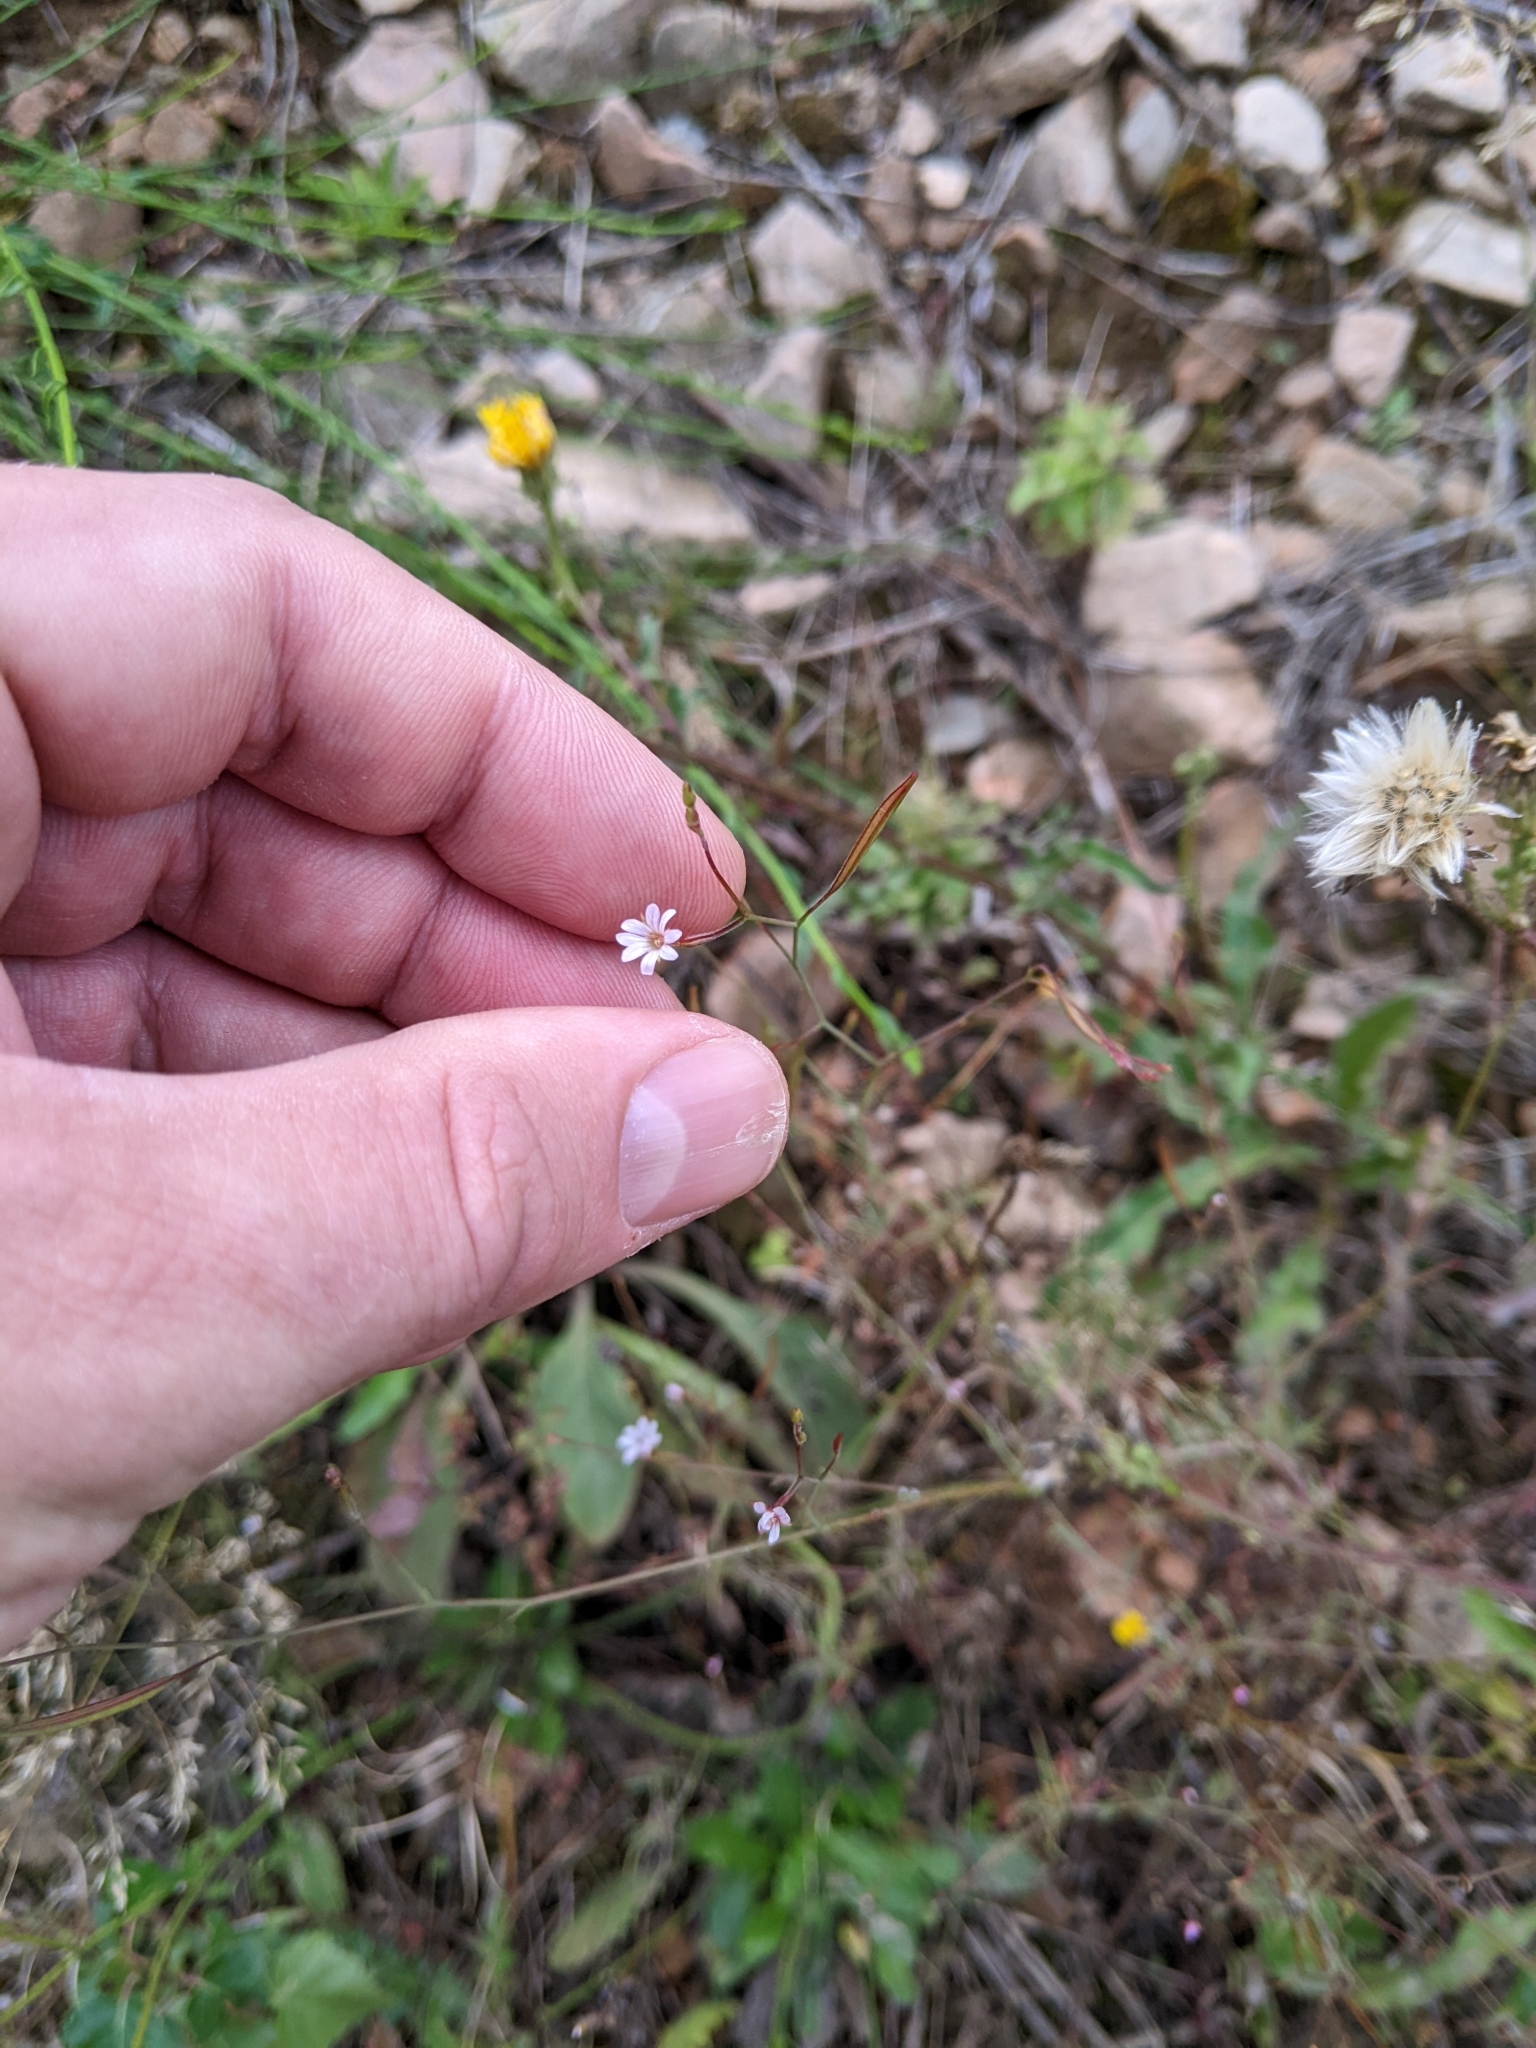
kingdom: Plantae
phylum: Tracheophyta
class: Magnoliopsida
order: Myrtales
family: Onagraceae
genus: Epilobium
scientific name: Epilobium brachycarpum
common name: Annual willowherb
